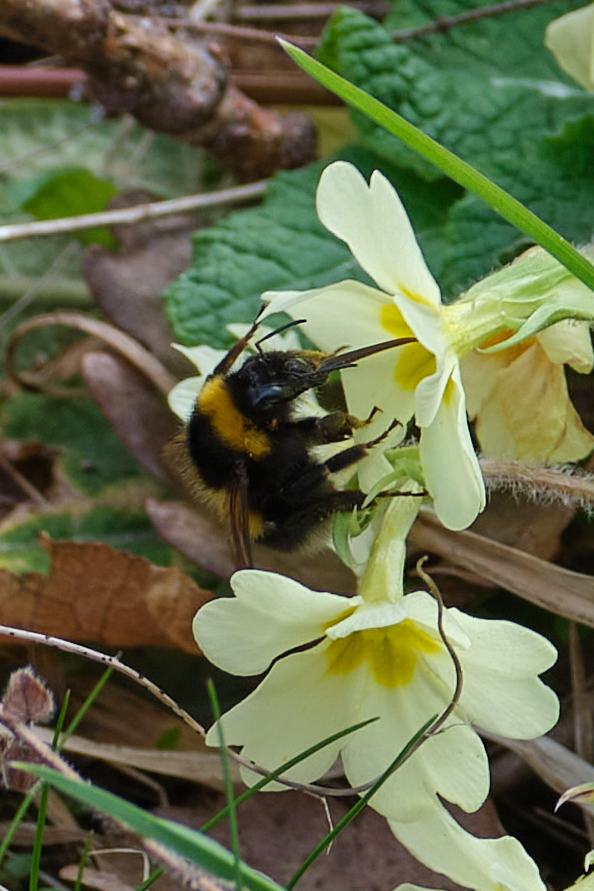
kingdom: Animalia
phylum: Arthropoda
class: Insecta
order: Hymenoptera
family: Apidae
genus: Bombus
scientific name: Bombus hortorum
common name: Garden bumblebee
